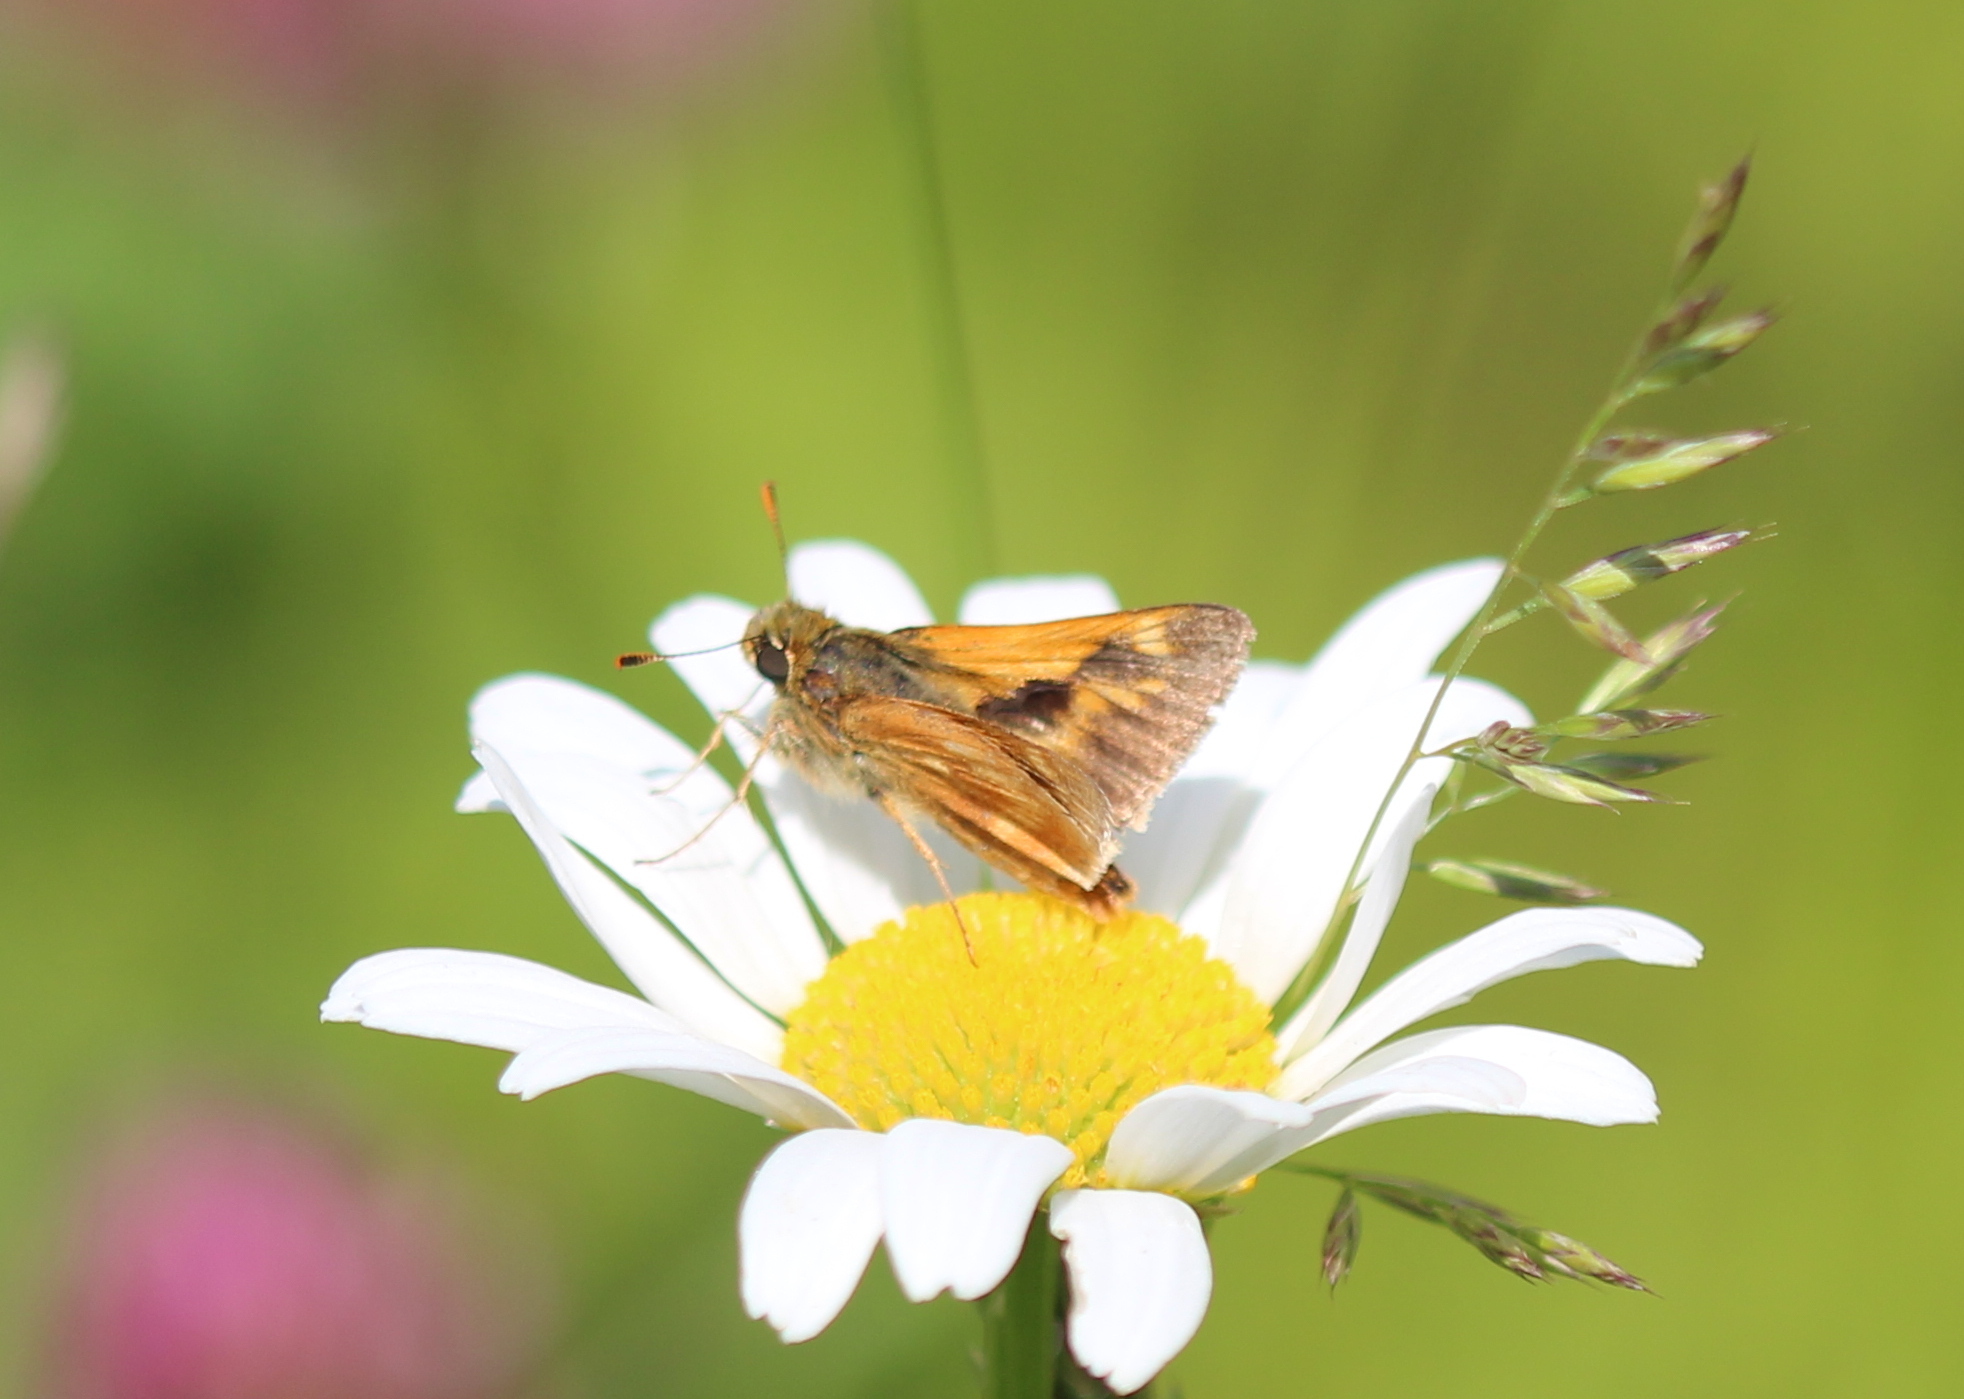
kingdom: Animalia
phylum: Arthropoda
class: Insecta
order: Lepidoptera
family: Hesperiidae
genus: Polites
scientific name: Polites mystic
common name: Long dash
